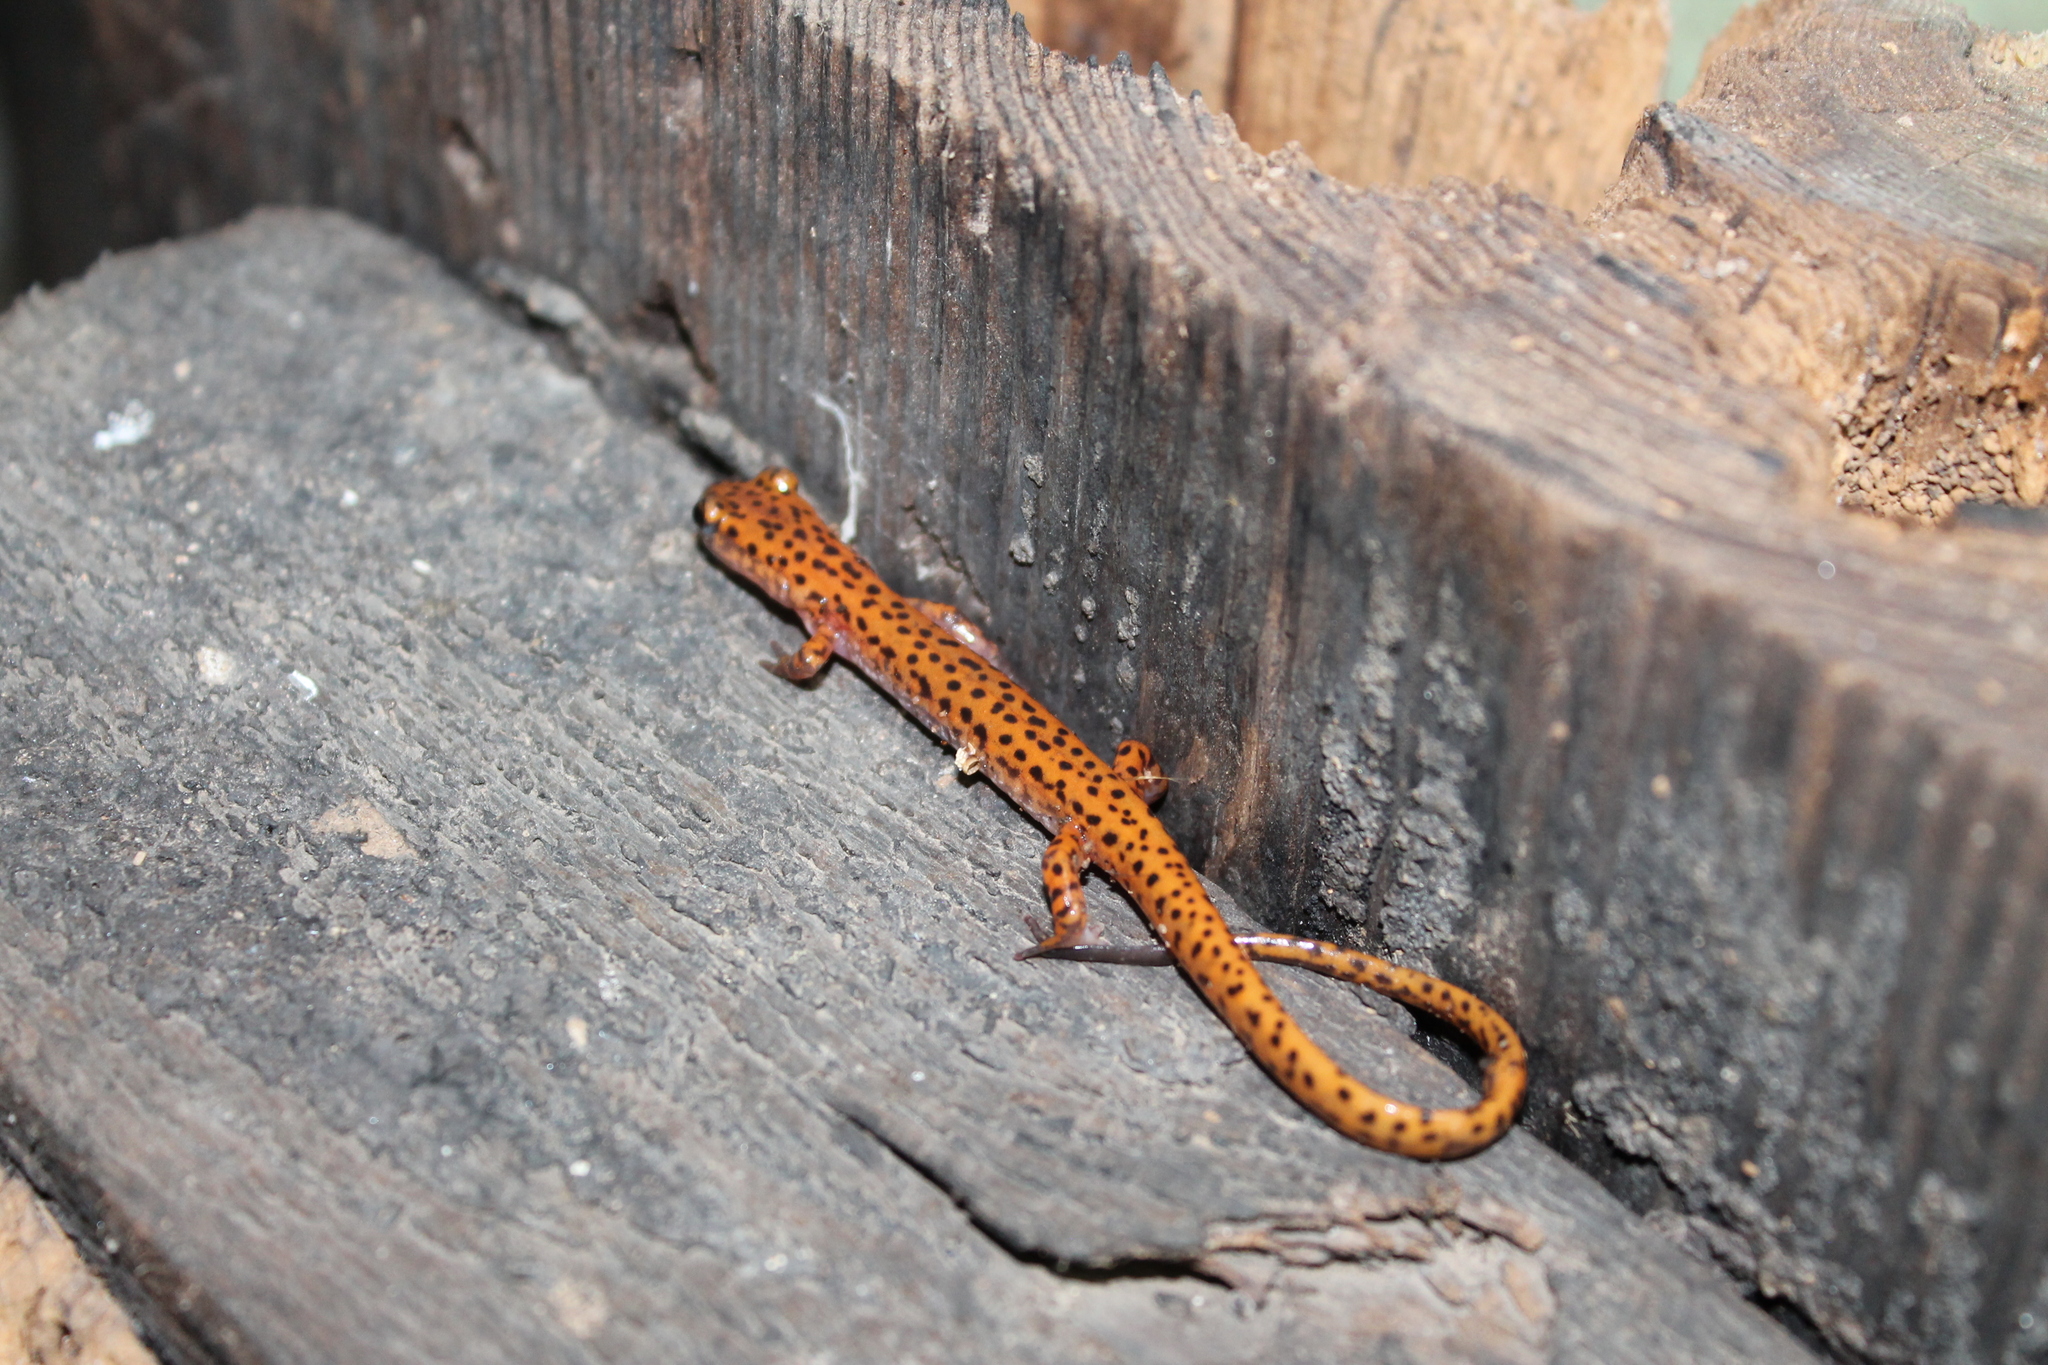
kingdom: Animalia
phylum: Chordata
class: Amphibia
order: Caudata
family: Plethodontidae
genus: Eurycea
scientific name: Eurycea lucifuga
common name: Cave salamander
